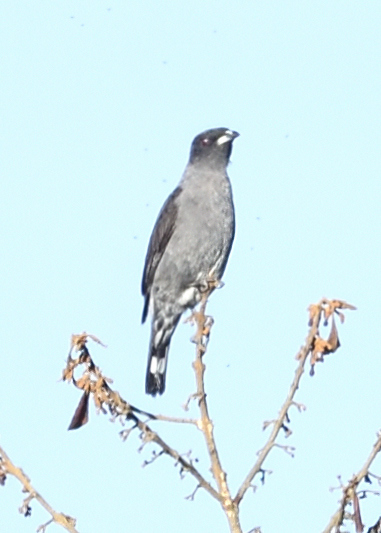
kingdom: Animalia
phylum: Chordata
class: Aves
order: Passeriformes
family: Cotingidae
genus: Ampelion
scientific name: Ampelion rubrocristatus
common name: Red-crested cotinga
